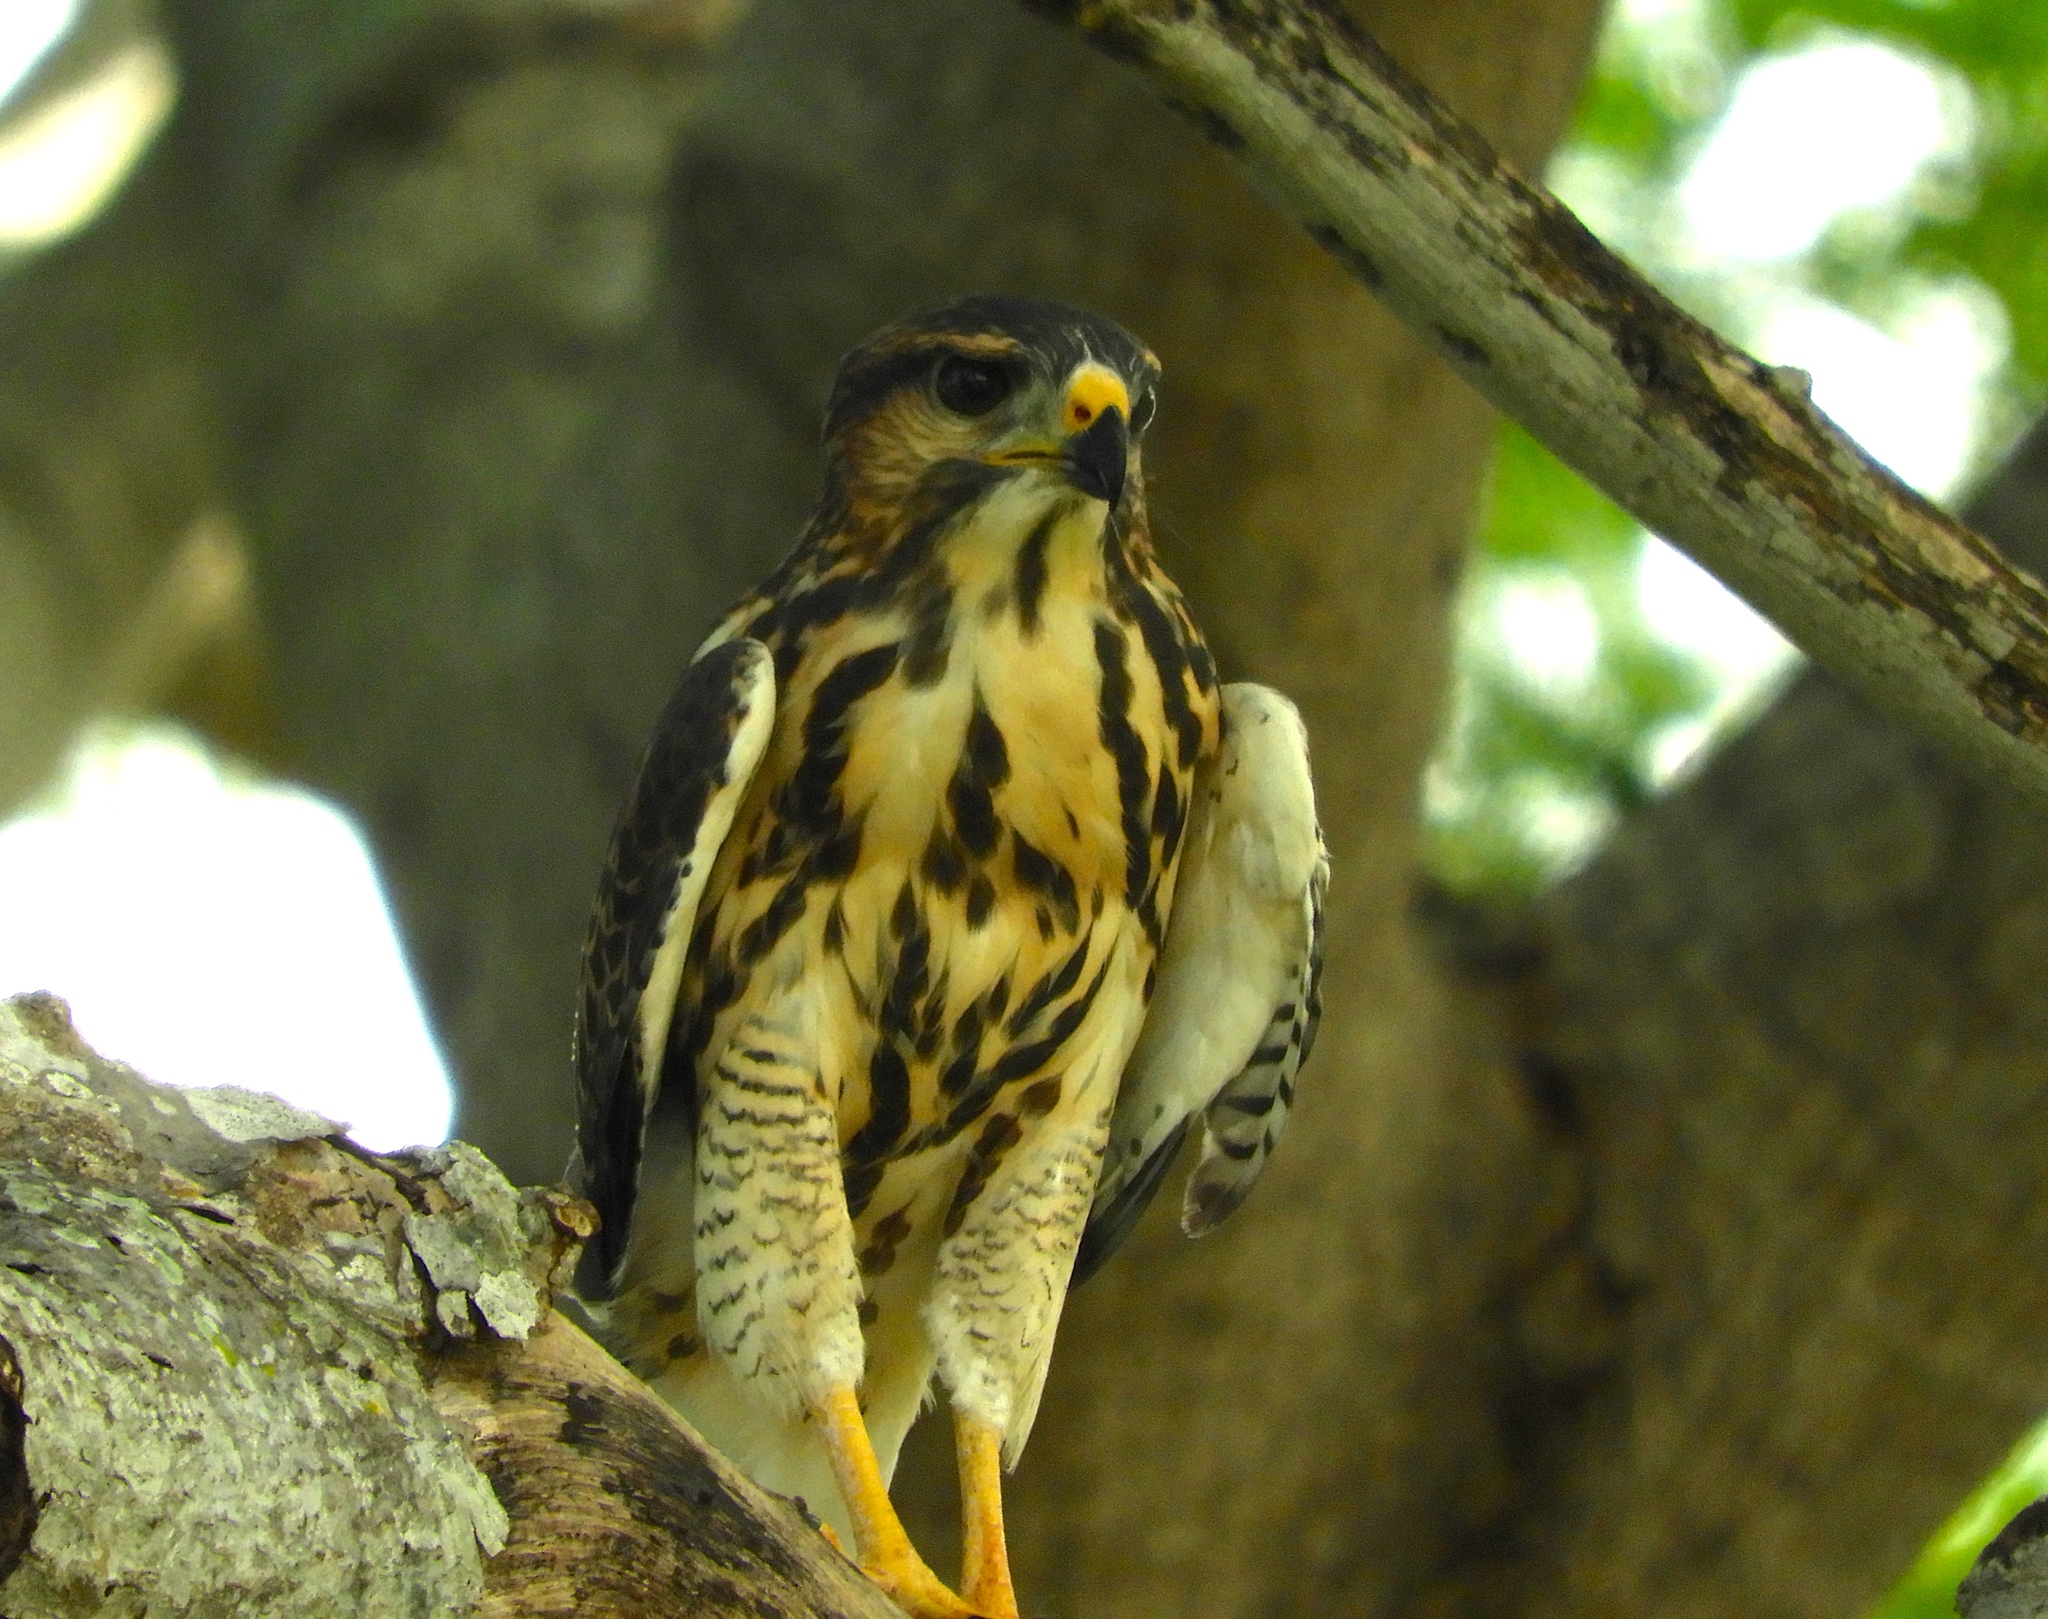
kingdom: Animalia
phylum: Chordata
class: Aves
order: Accipitriformes
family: Accipitridae
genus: Buteo
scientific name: Buteo nitidus
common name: Grey-lined hawk
